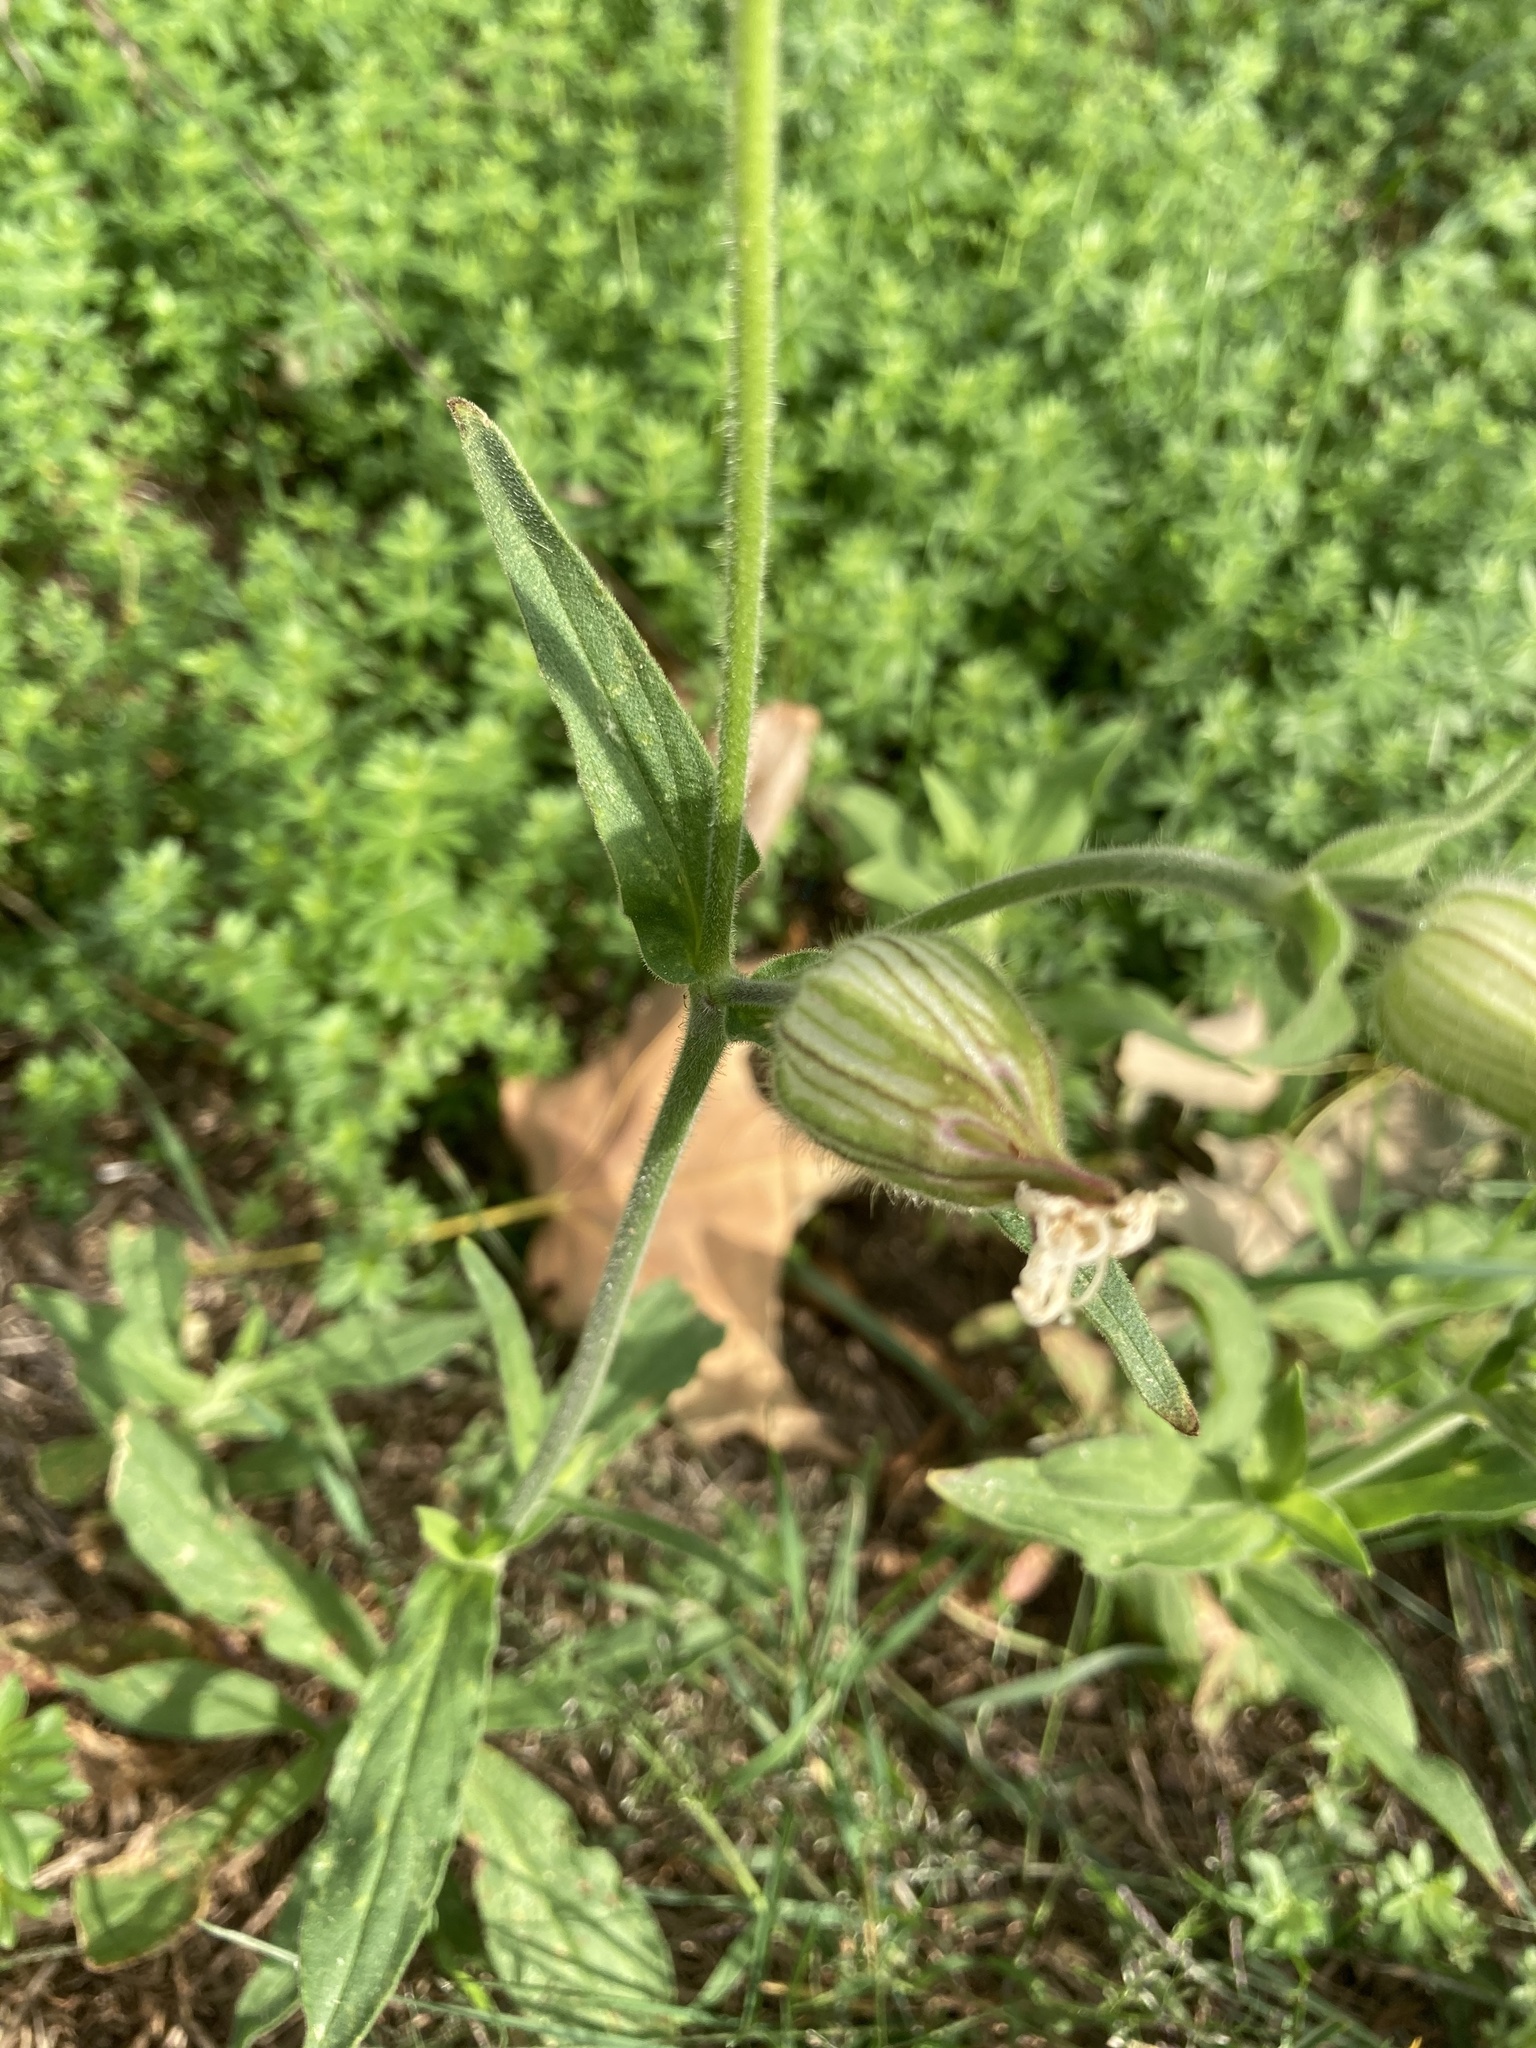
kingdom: Plantae
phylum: Tracheophyta
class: Magnoliopsida
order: Caryophyllales
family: Caryophyllaceae
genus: Silene
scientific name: Silene latifolia
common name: White campion
